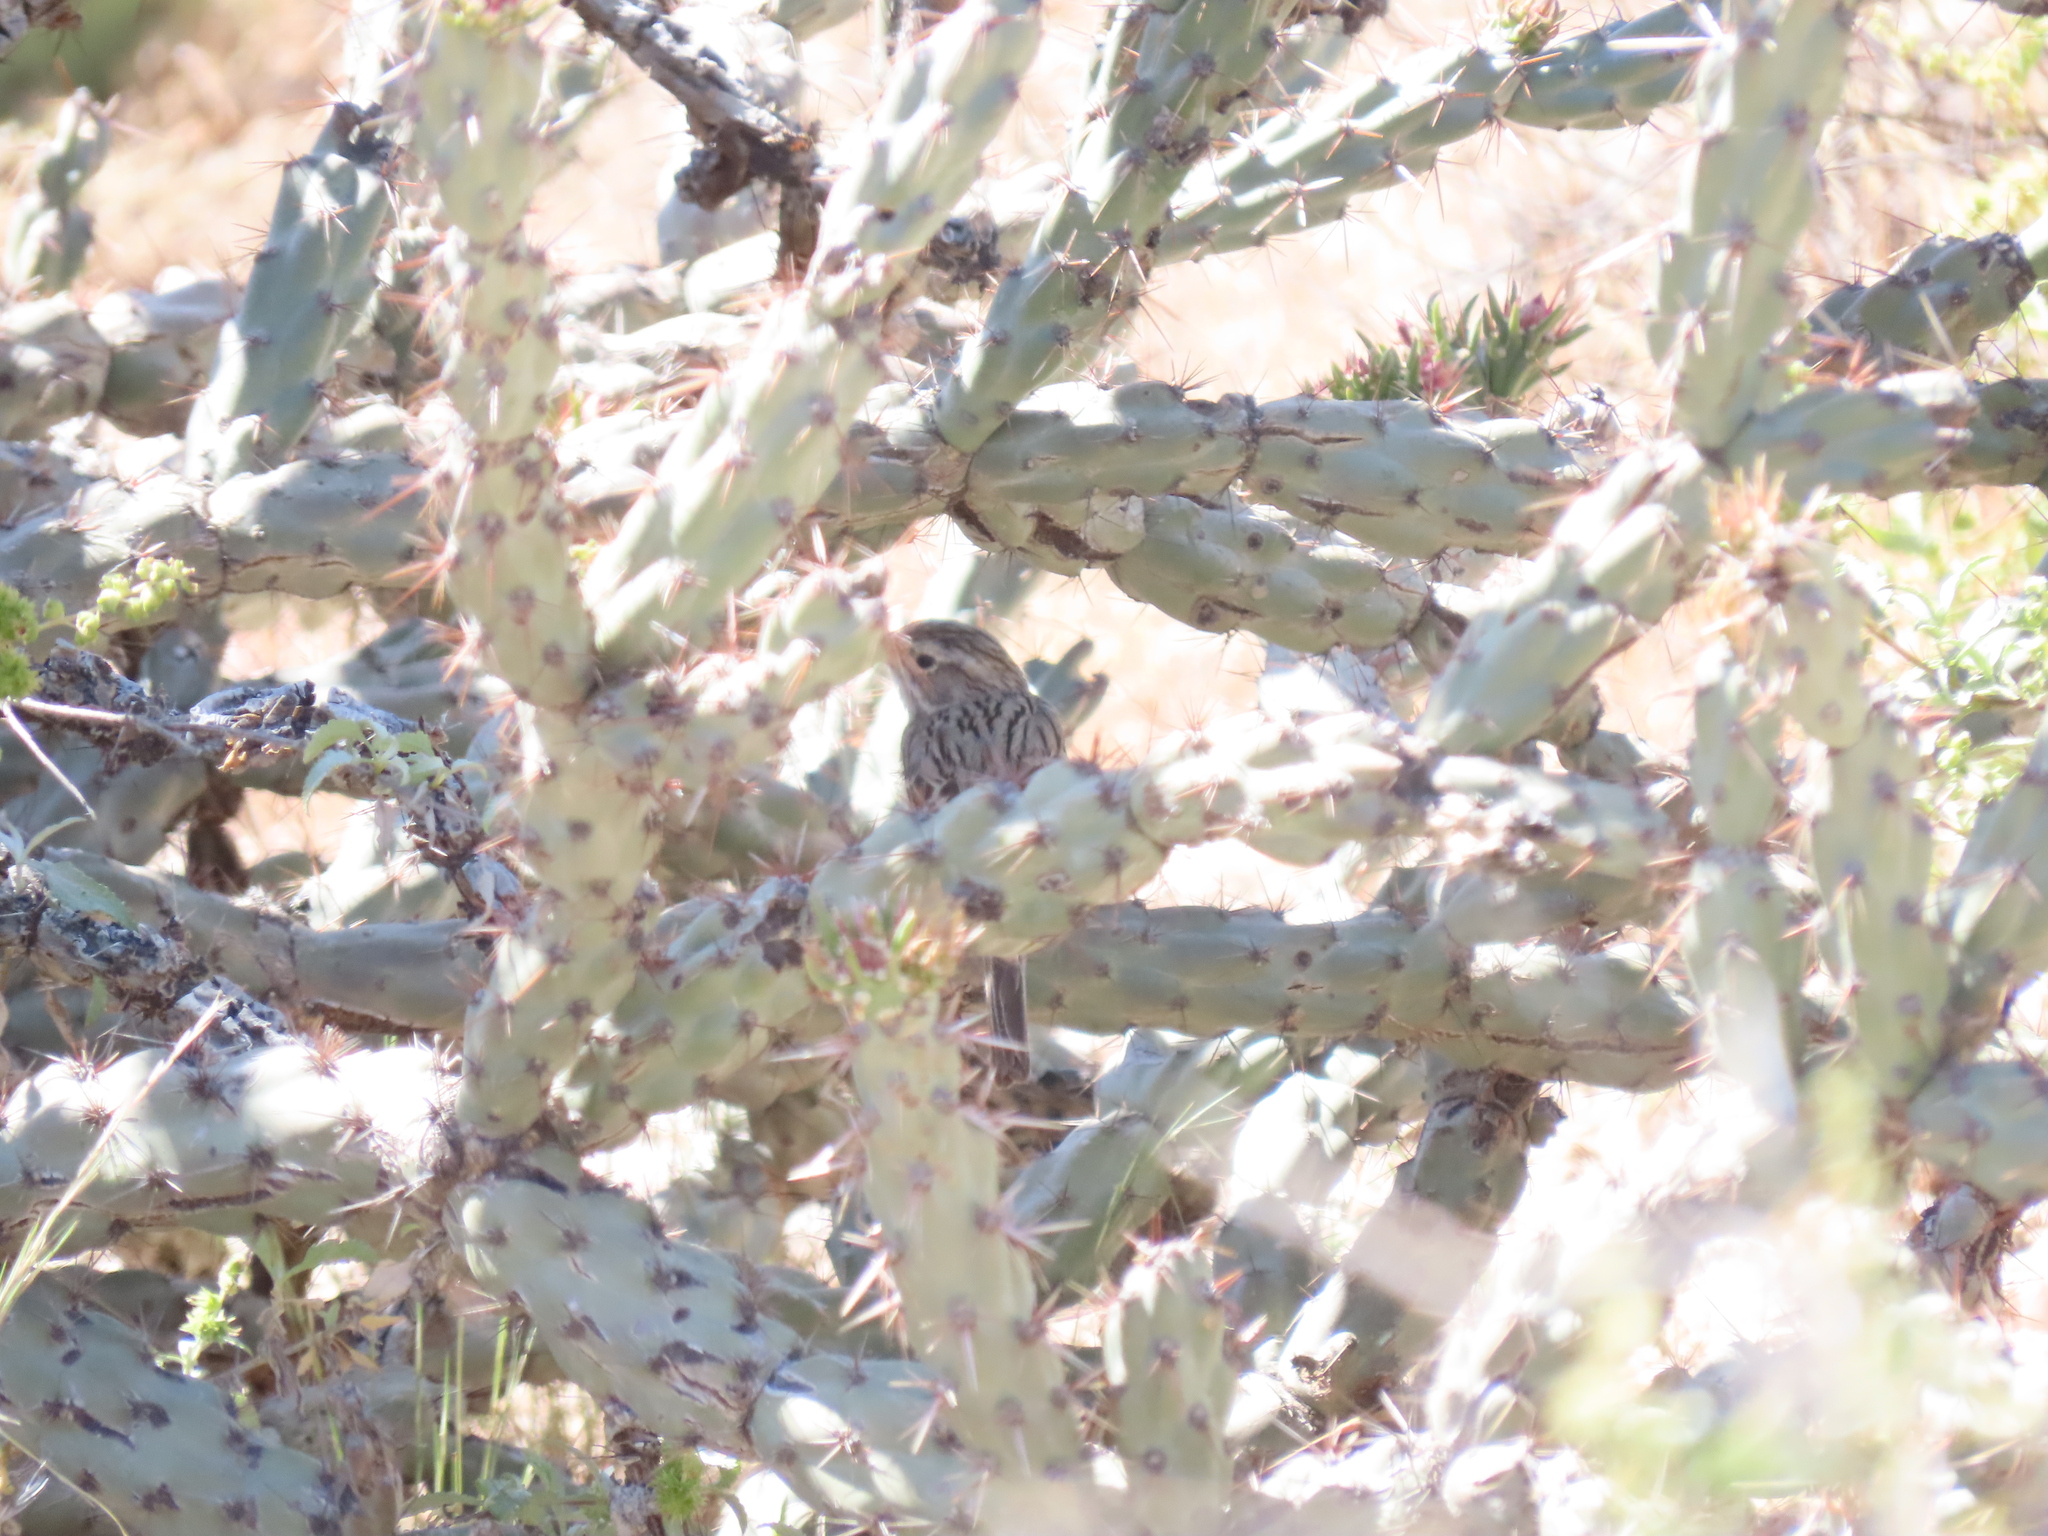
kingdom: Animalia
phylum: Chordata
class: Aves
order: Passeriformes
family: Passerellidae
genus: Spizella
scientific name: Spizella breweri
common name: Brewer's sparrow
